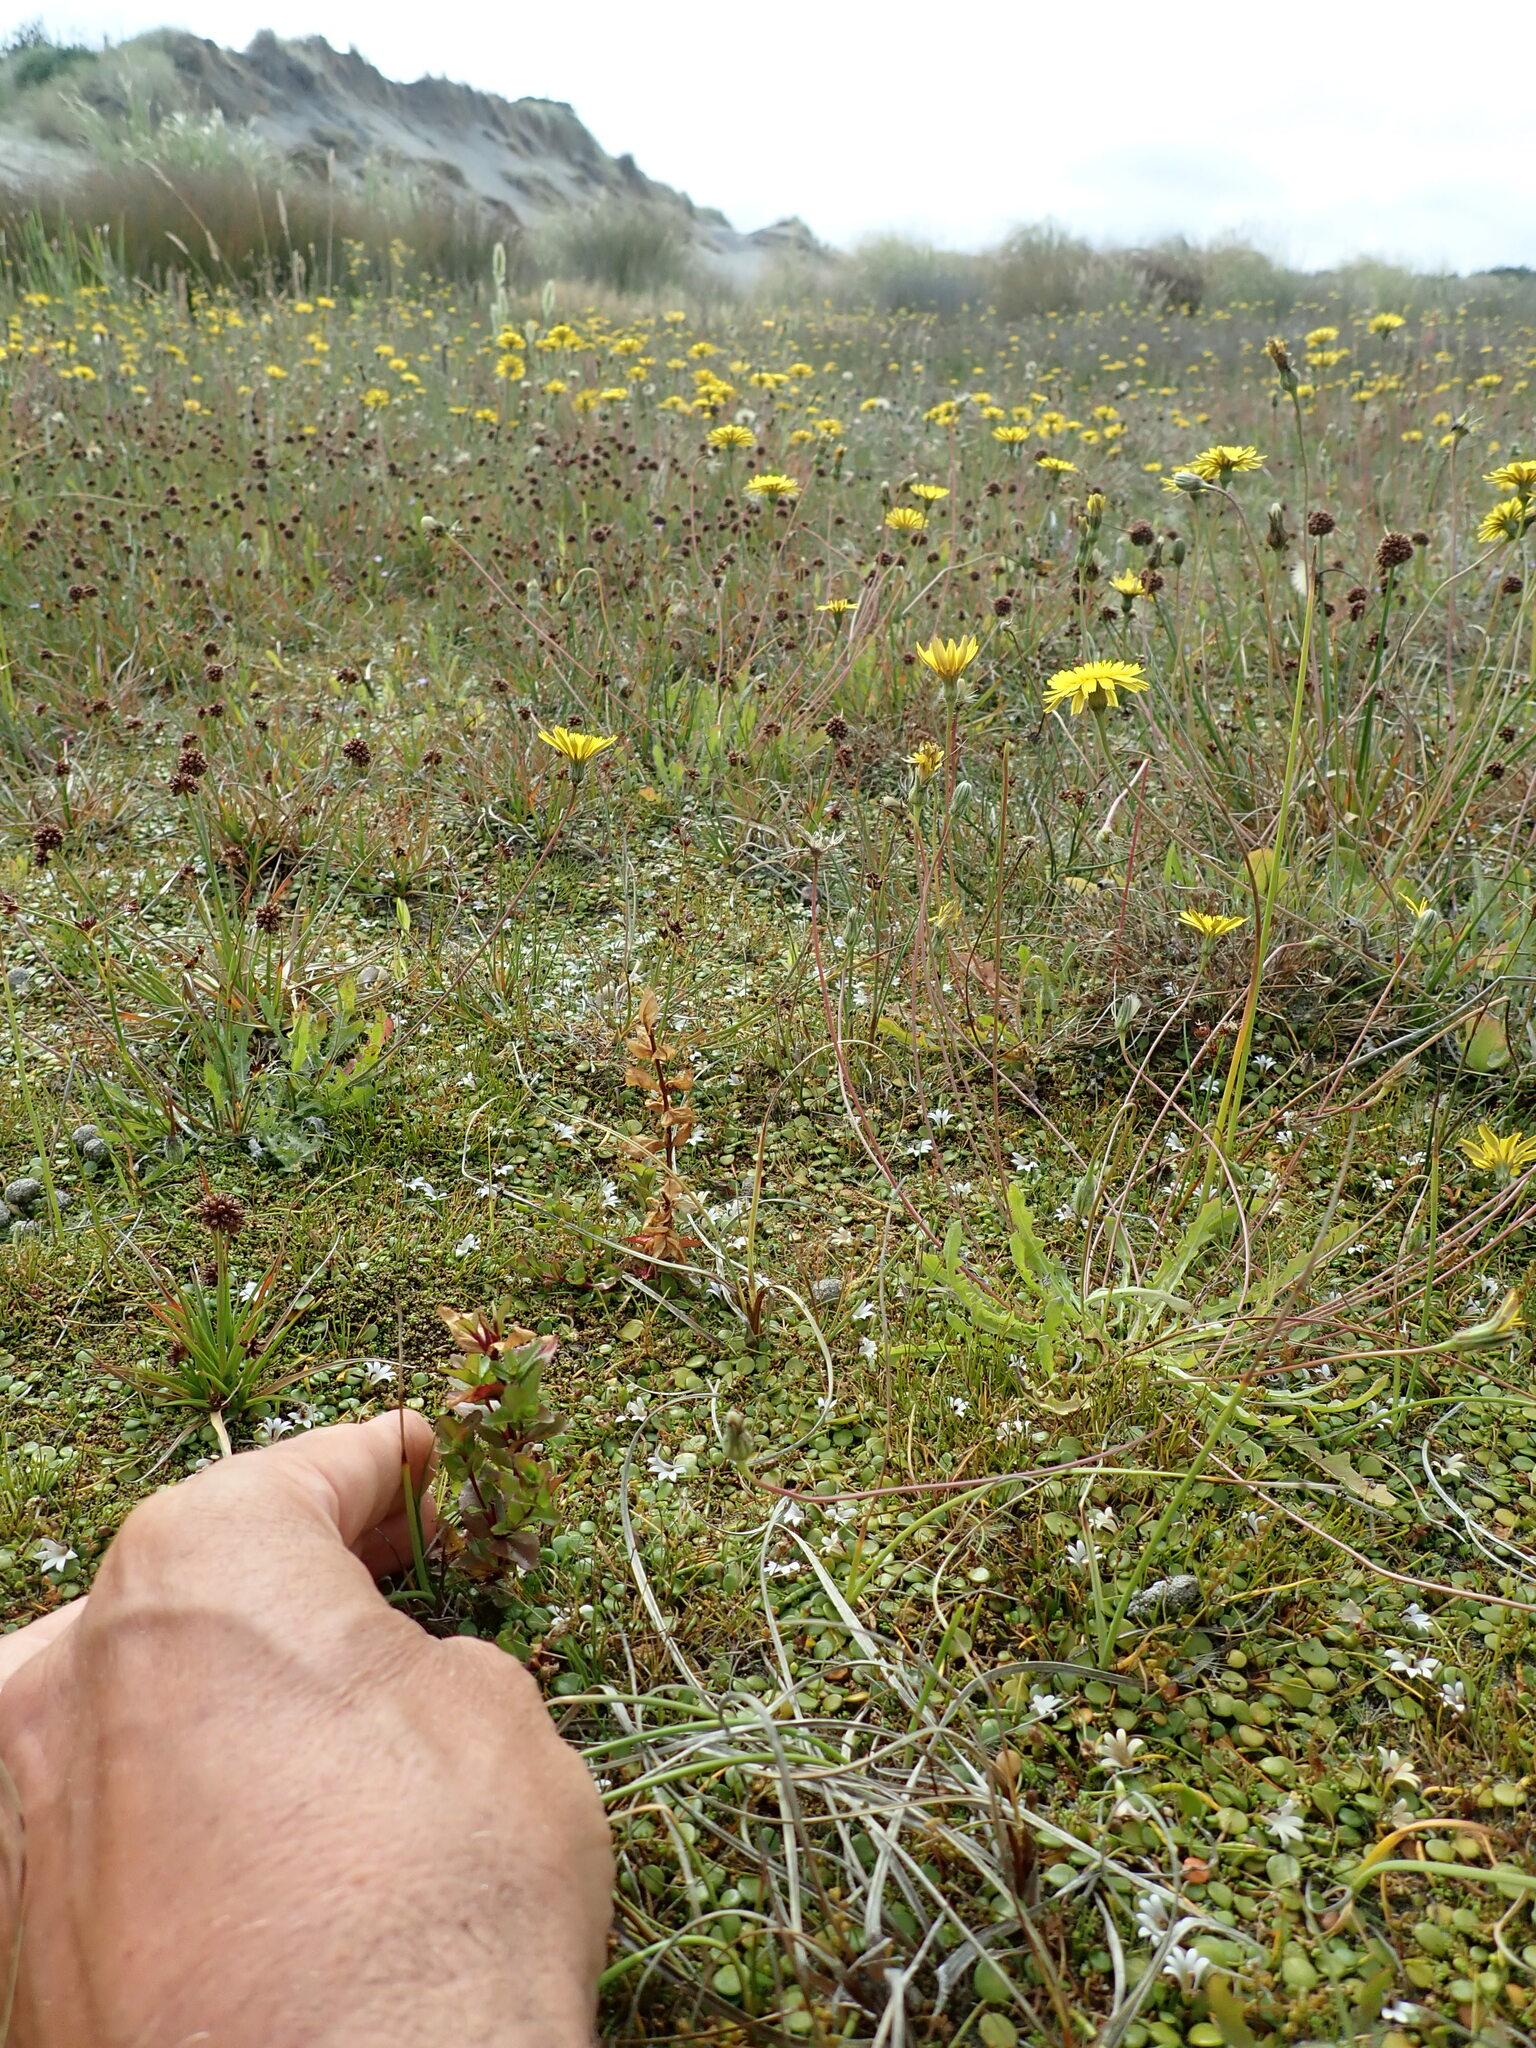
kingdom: Plantae
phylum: Tracheophyta
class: Magnoliopsida
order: Myrtales
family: Onagraceae
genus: Epilobium
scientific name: Epilobium billardiereanum
